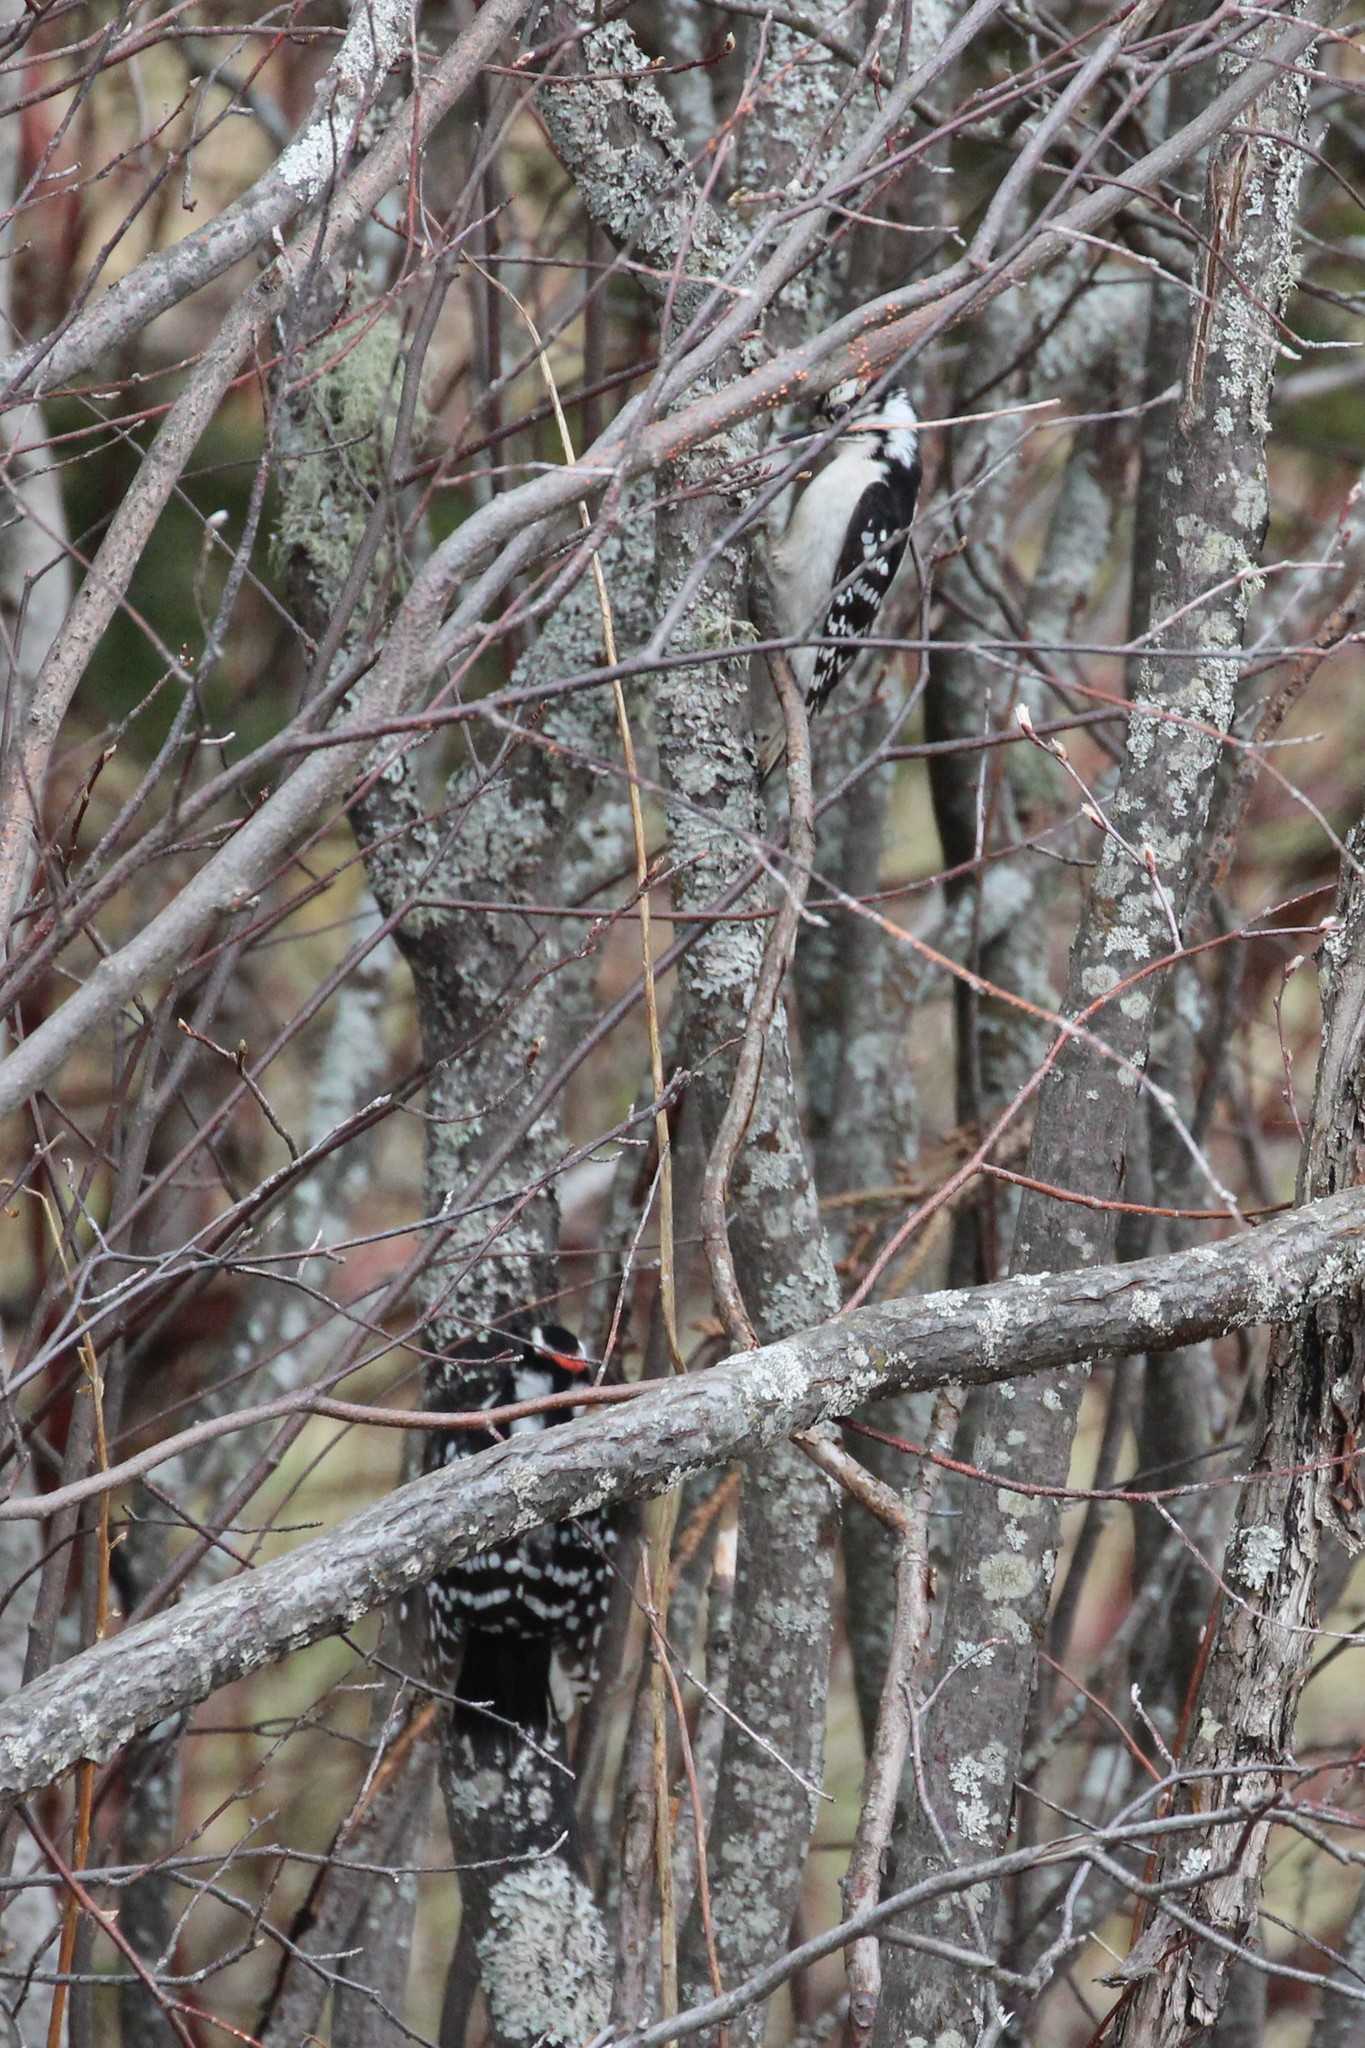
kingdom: Animalia
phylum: Chordata
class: Aves
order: Piciformes
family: Picidae
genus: Dryobates
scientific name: Dryobates pubescens
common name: Downy woodpecker
